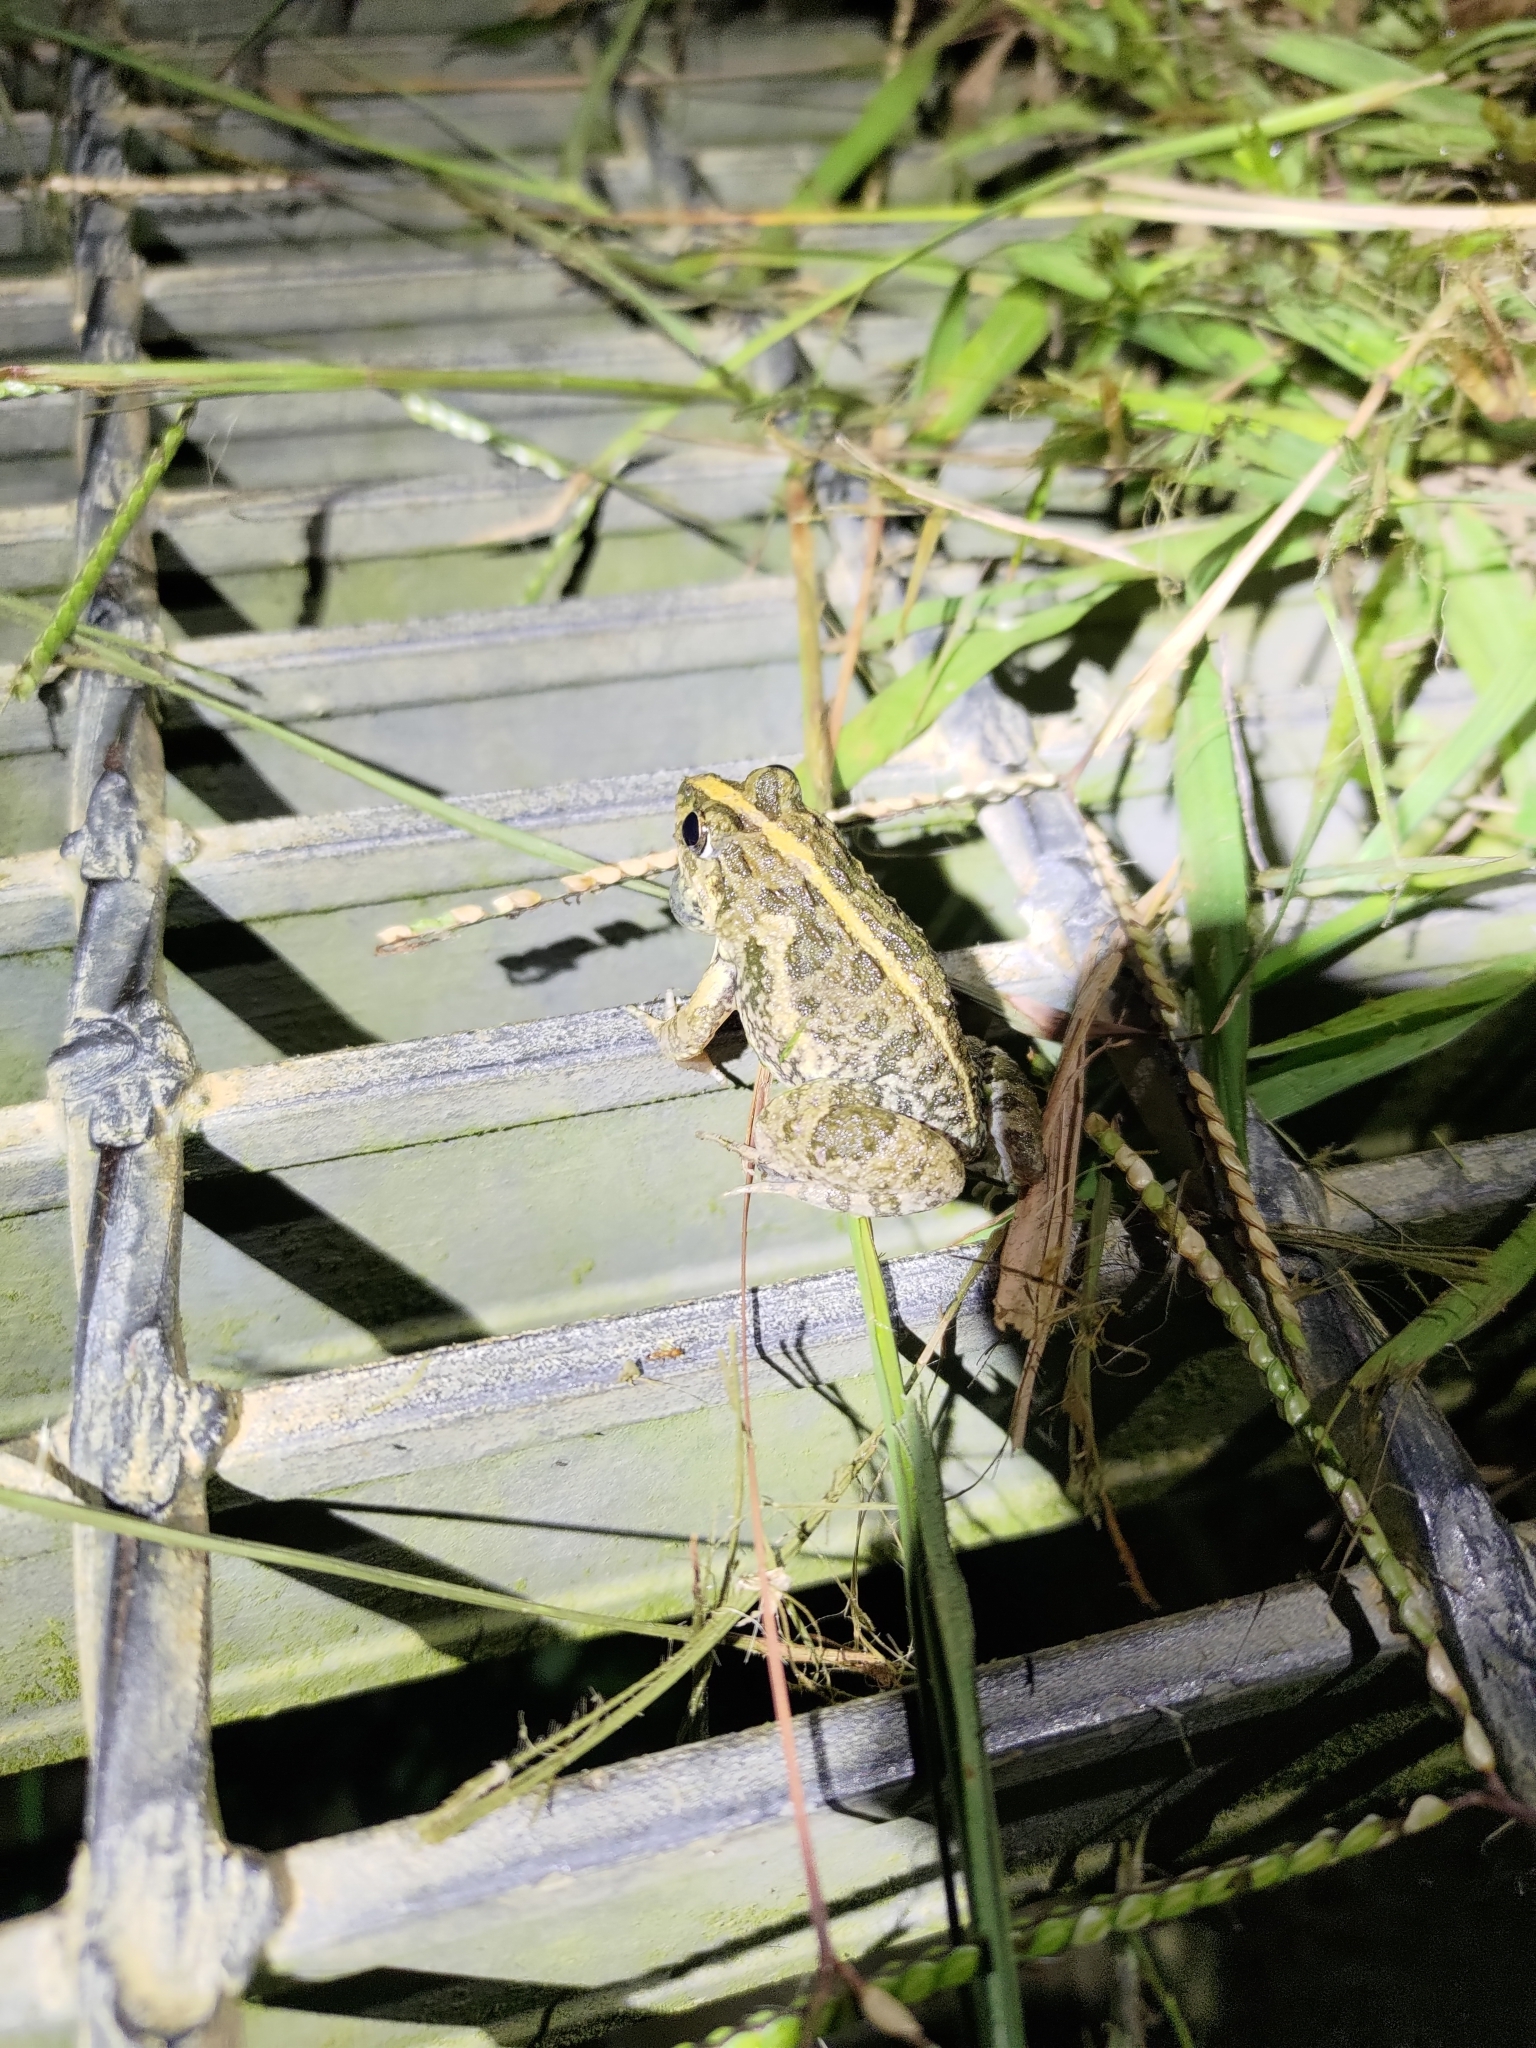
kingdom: Animalia
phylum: Chordata
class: Amphibia
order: Anura
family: Dicroglossidae
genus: Fejervarya
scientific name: Fejervarya limnocharis
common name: Asian grass frog/common pond frog/field frog/grass frog/indian rice frog
